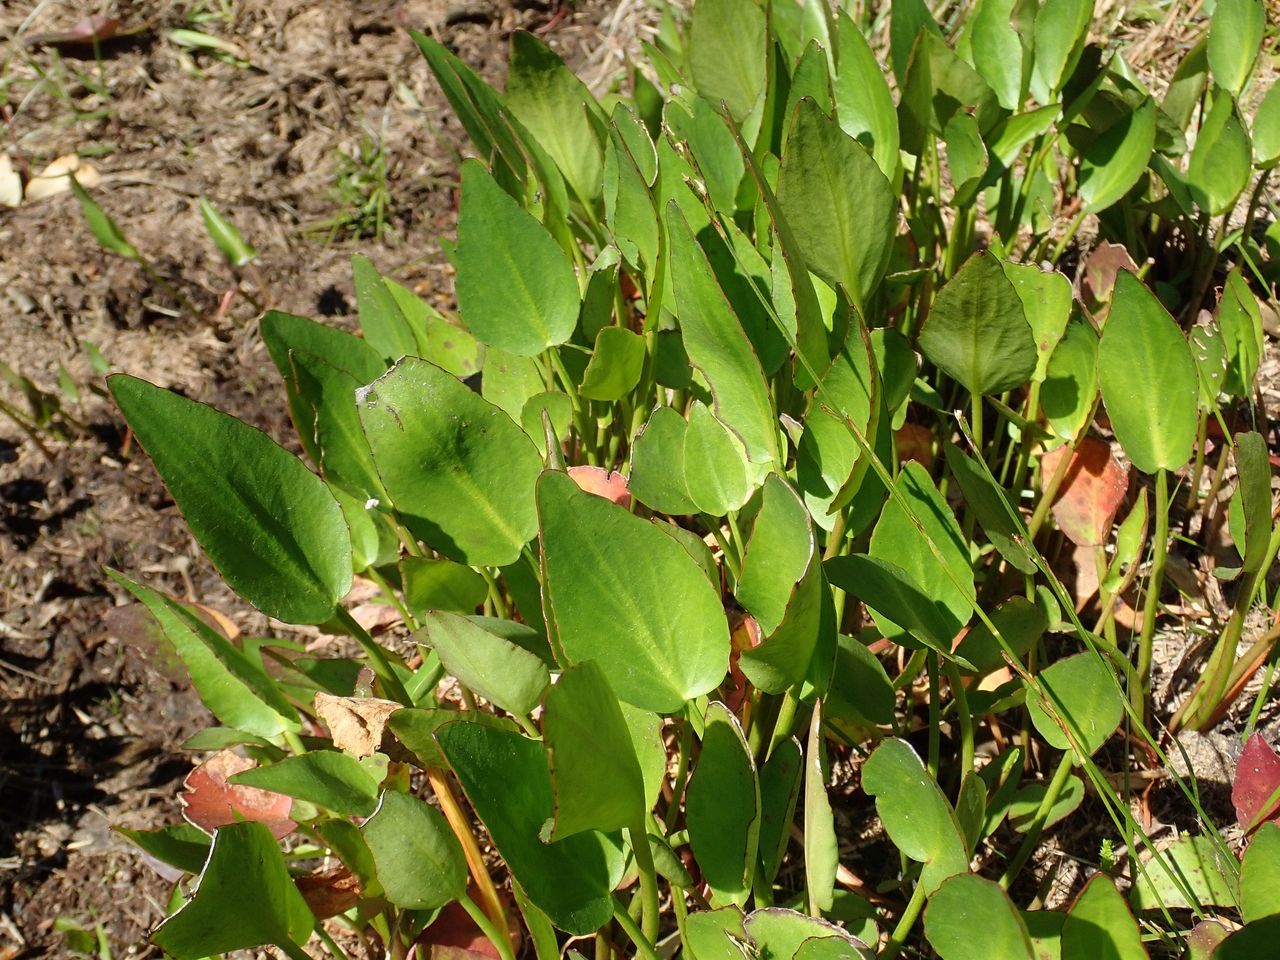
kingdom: Plantae
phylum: Tracheophyta
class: Magnoliopsida
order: Asterales
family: Menyanthaceae
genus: Liparophyllum
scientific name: Liparophyllum exaltatum
